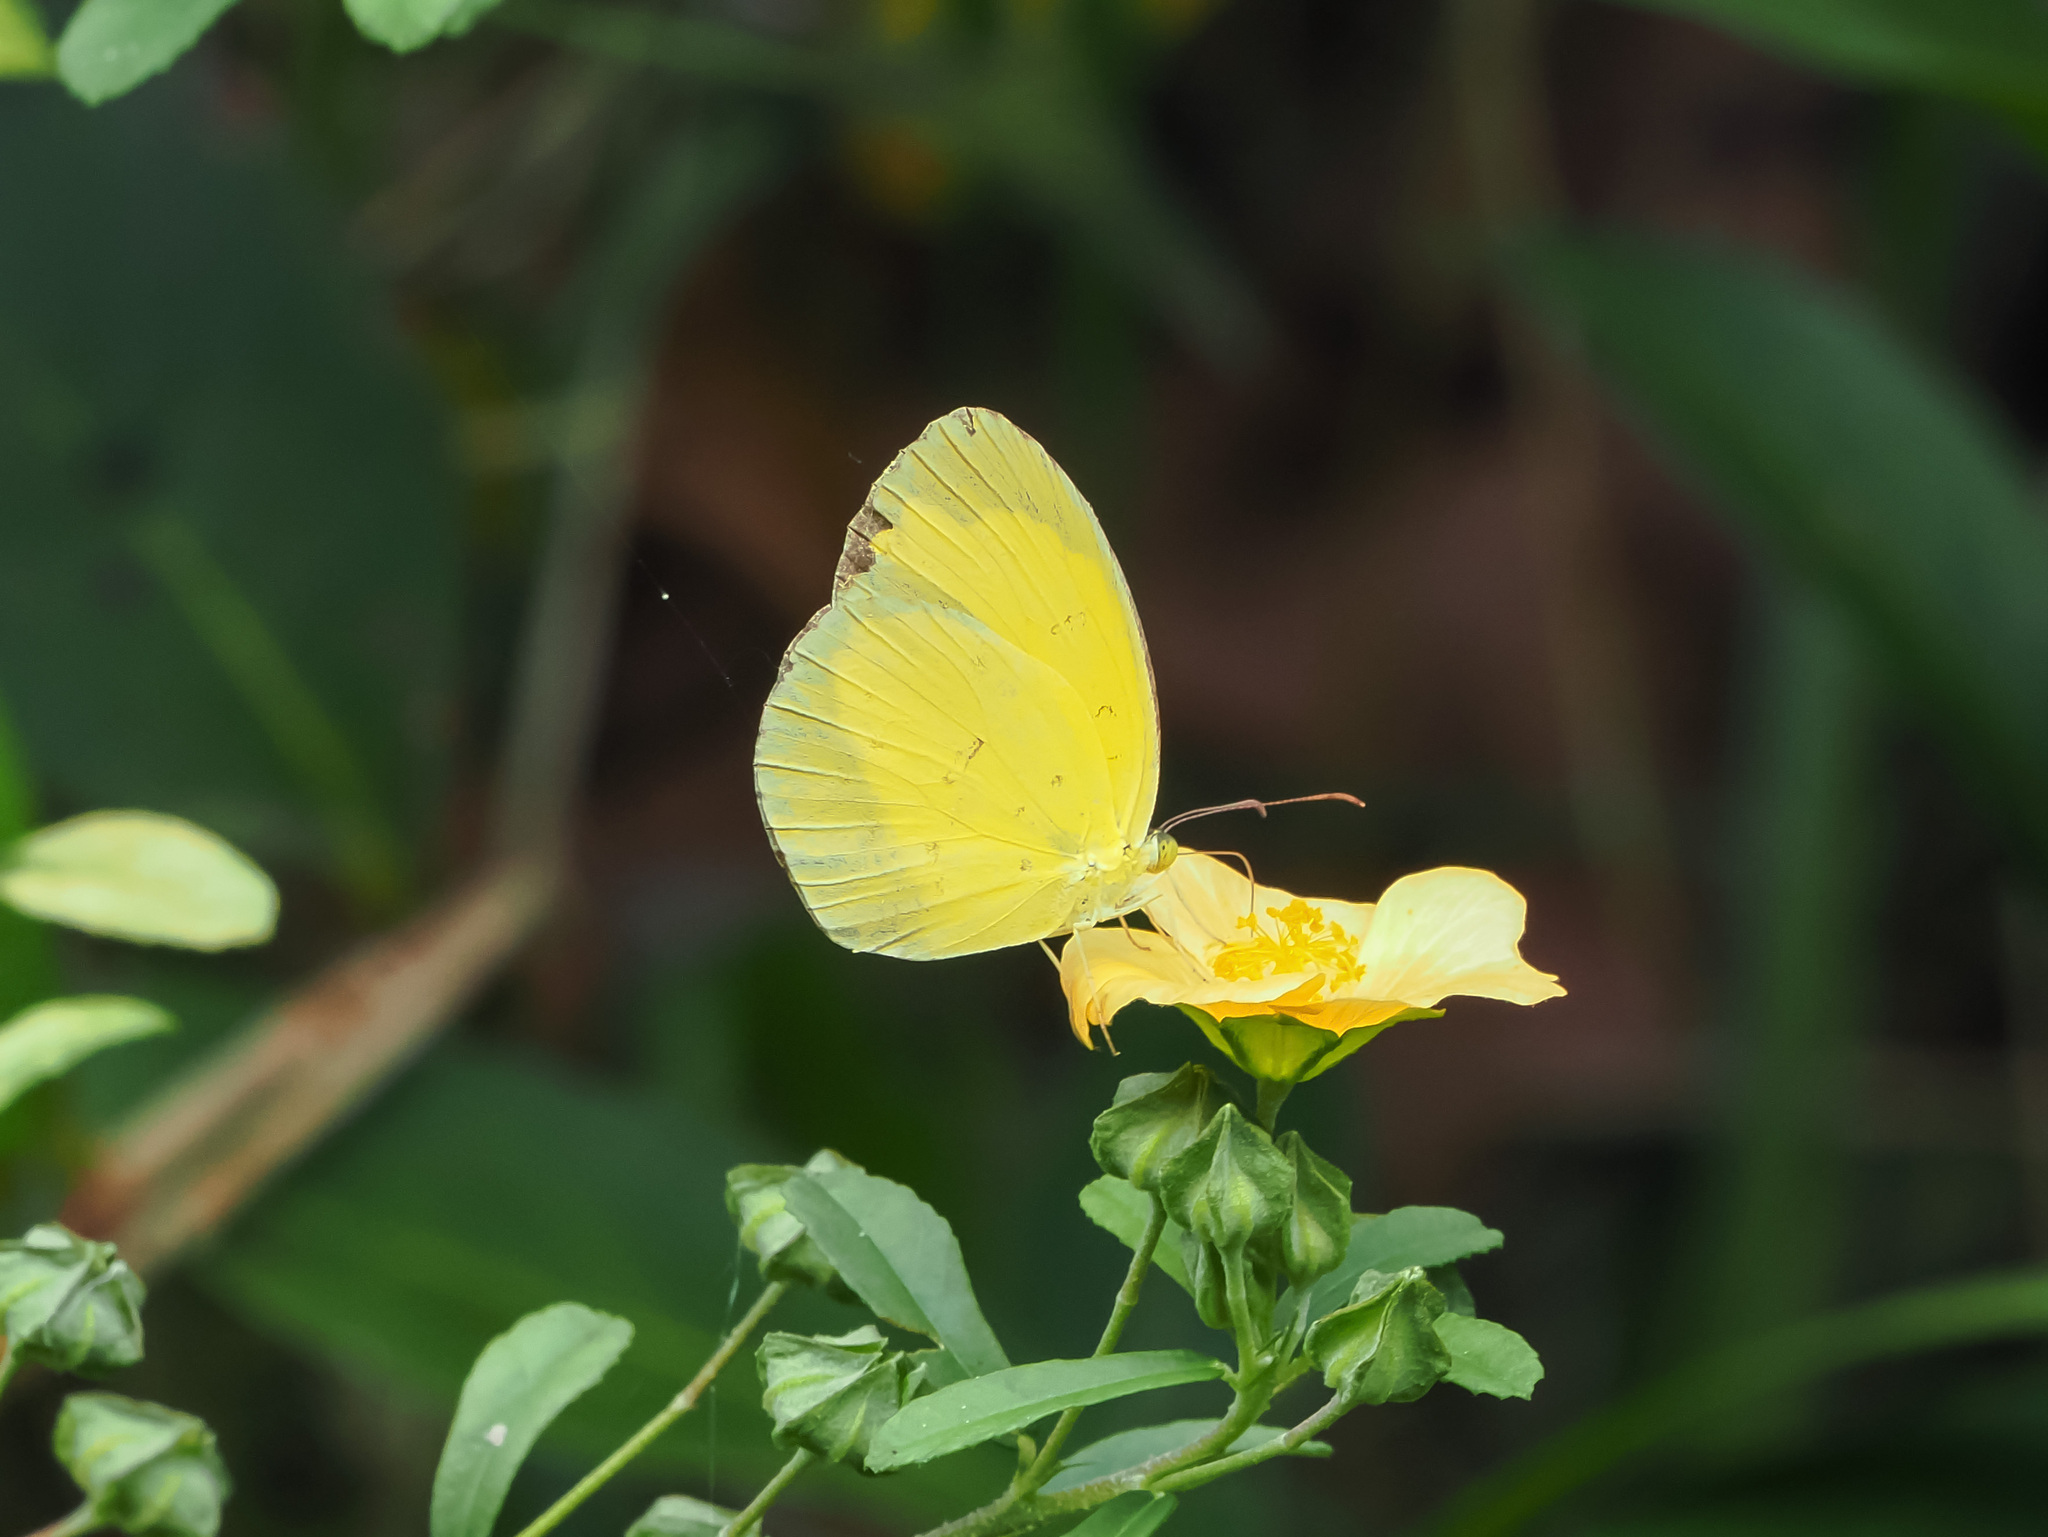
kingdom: Animalia
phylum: Arthropoda
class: Insecta
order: Lepidoptera
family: Pieridae
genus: Eurema
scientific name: Eurema alitha
